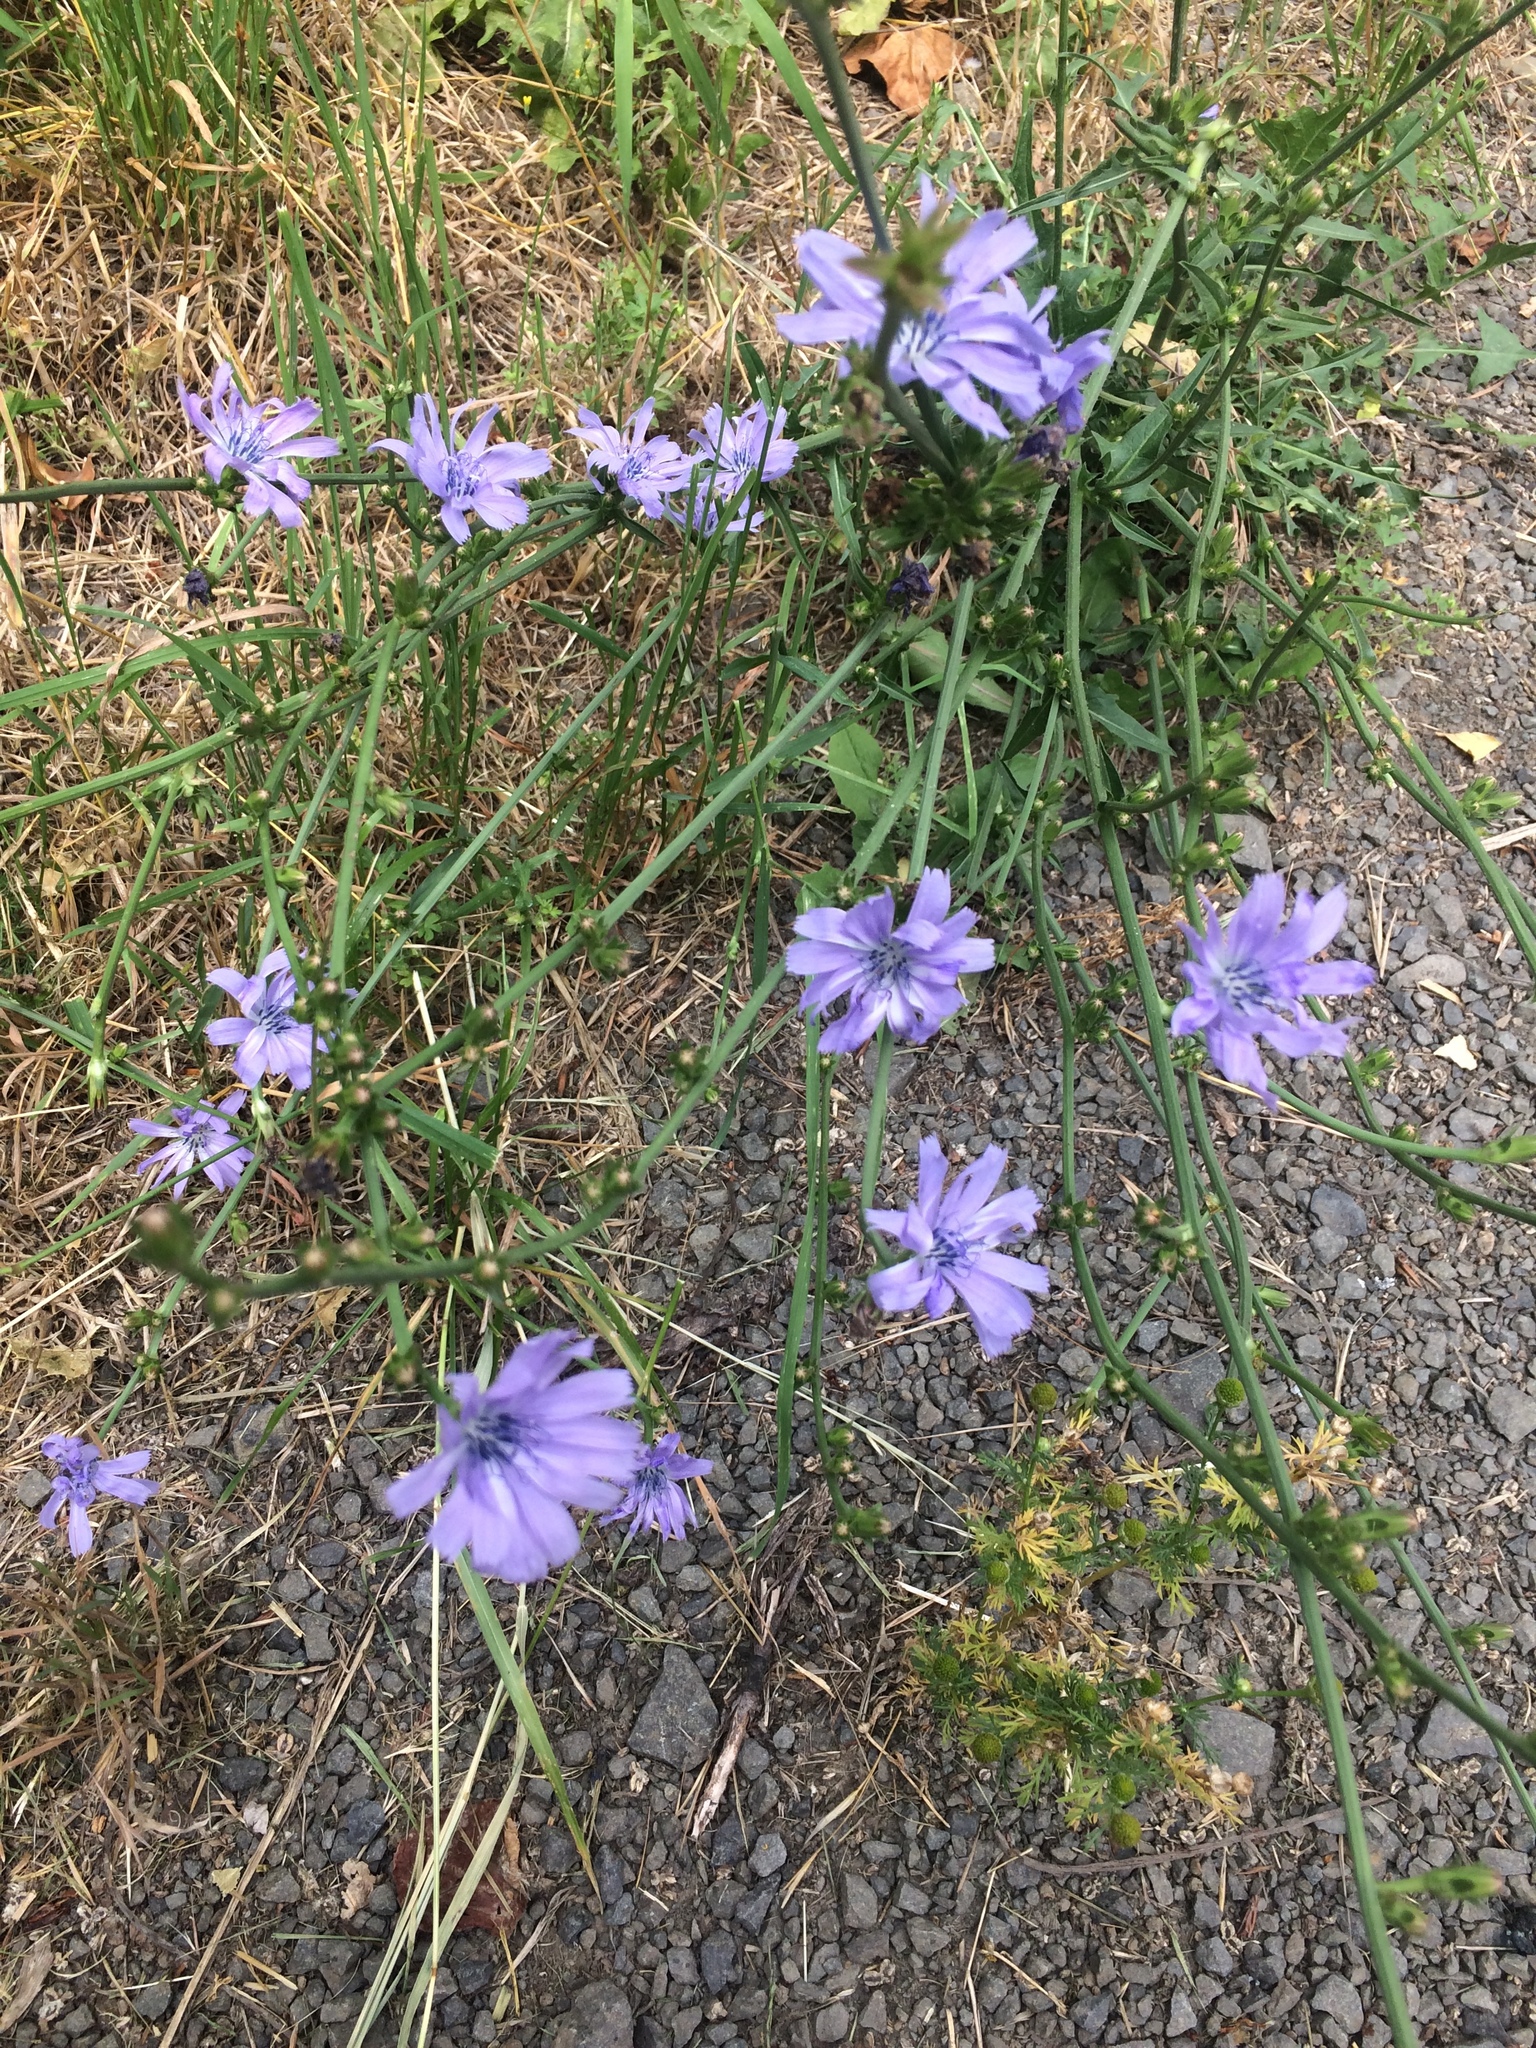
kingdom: Plantae
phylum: Tracheophyta
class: Magnoliopsida
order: Asterales
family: Asteraceae
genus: Cichorium
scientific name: Cichorium intybus
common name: Chicory
